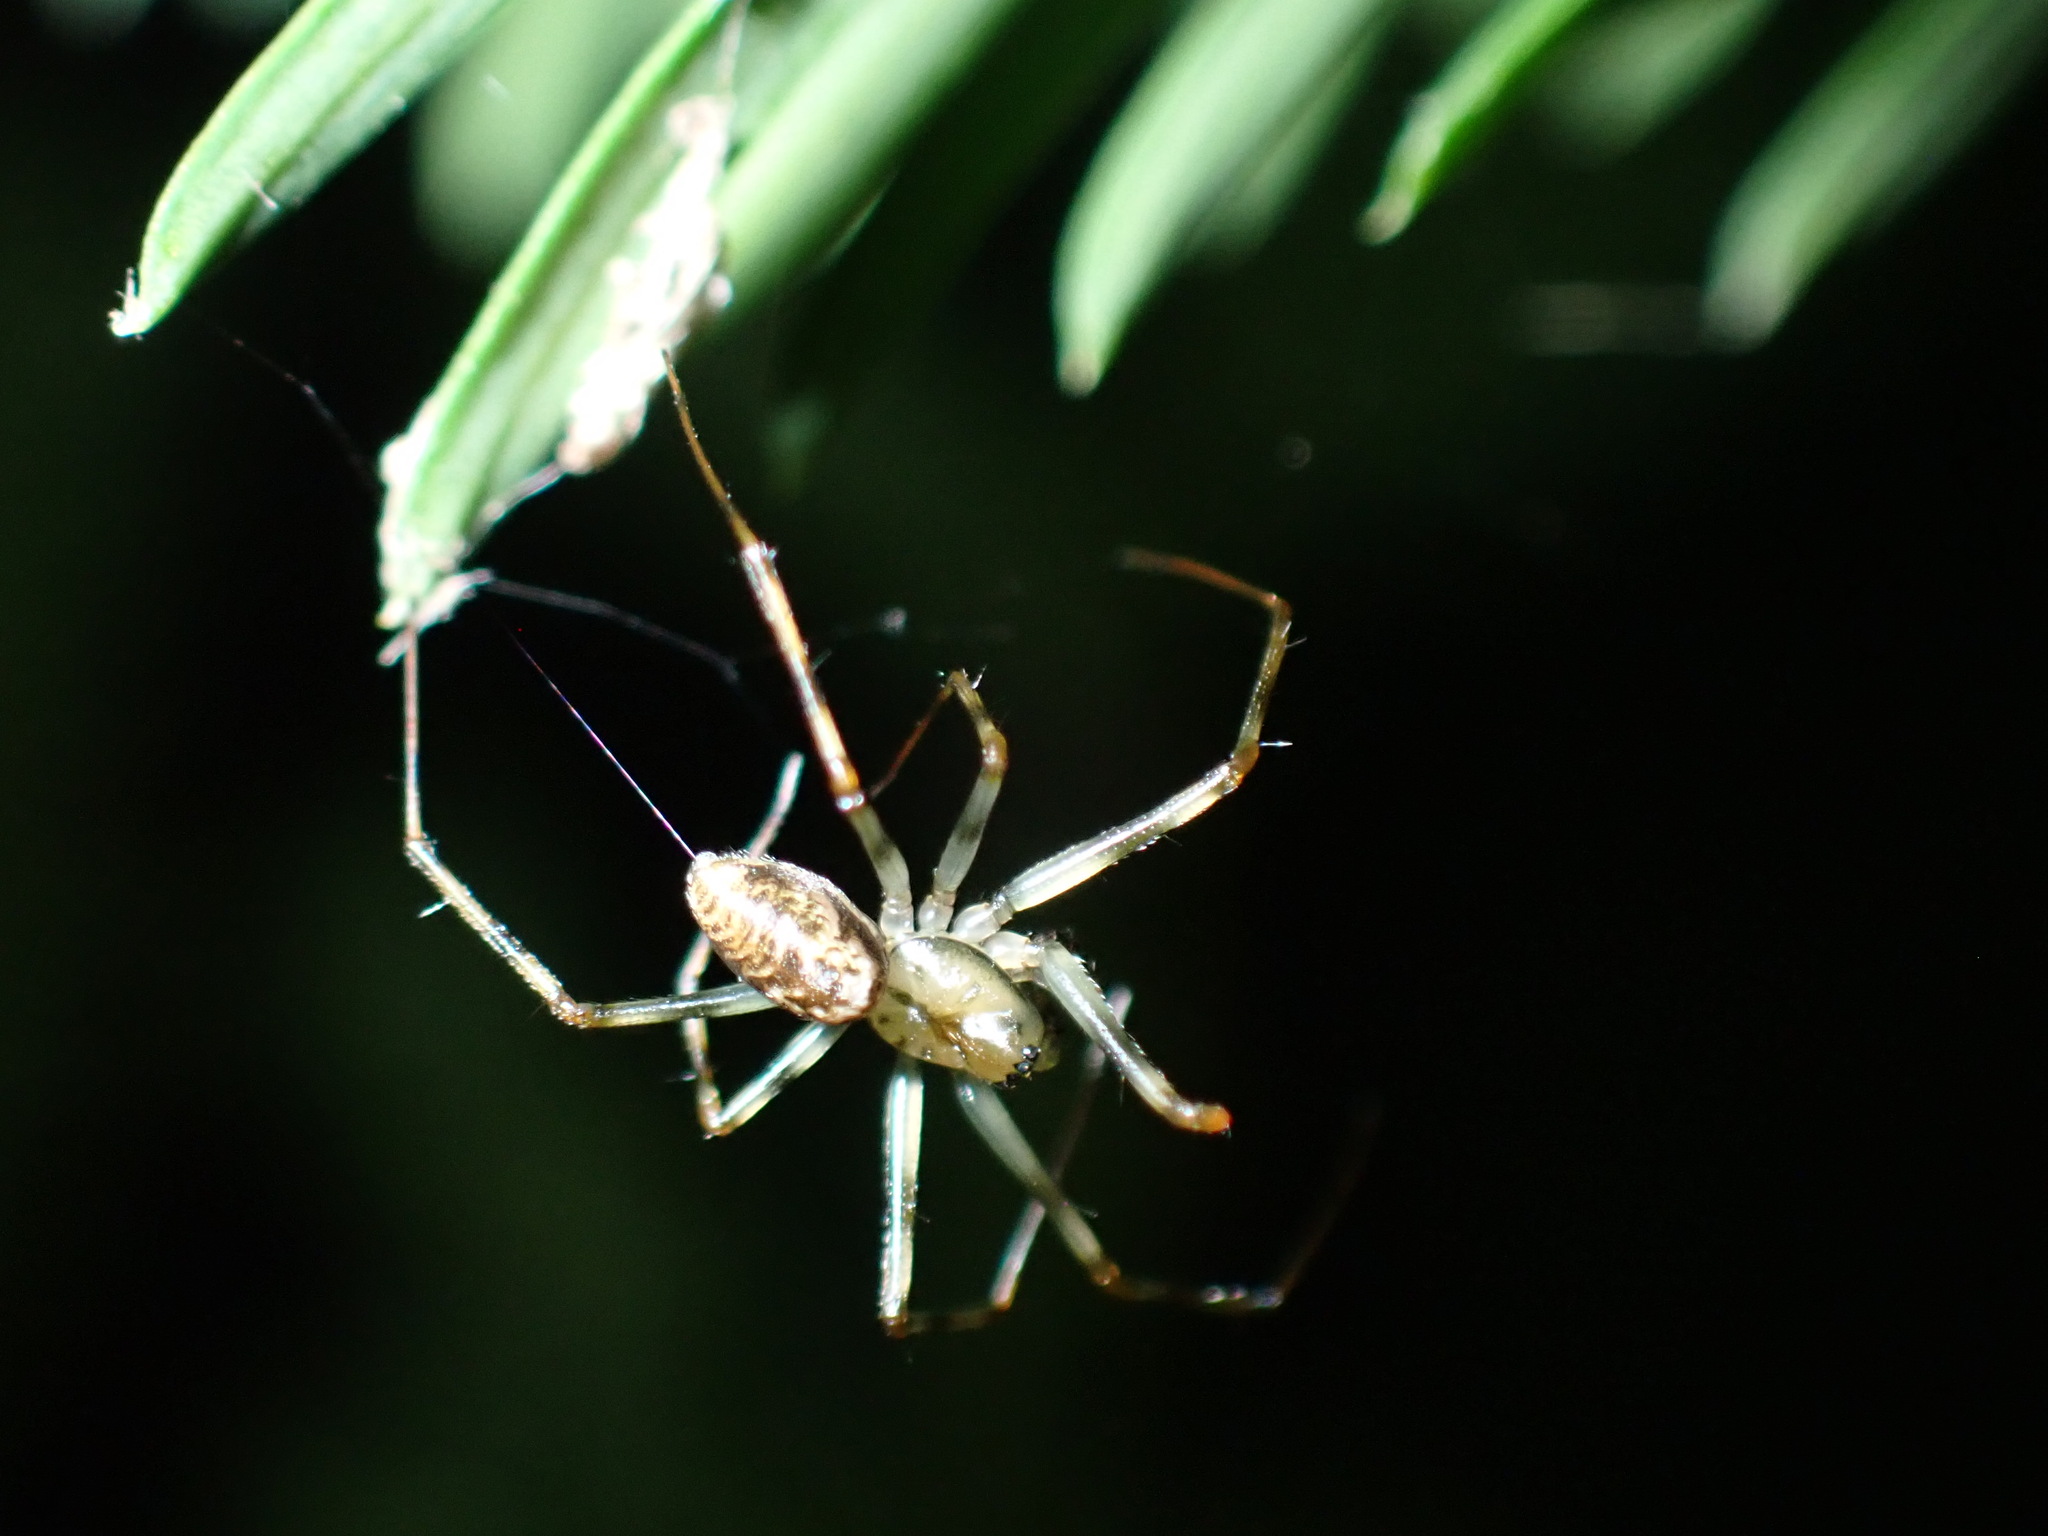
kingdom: Animalia
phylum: Arthropoda
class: Arachnida
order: Araneae
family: Linyphiidae
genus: Drapetisca
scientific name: Drapetisca socialis
